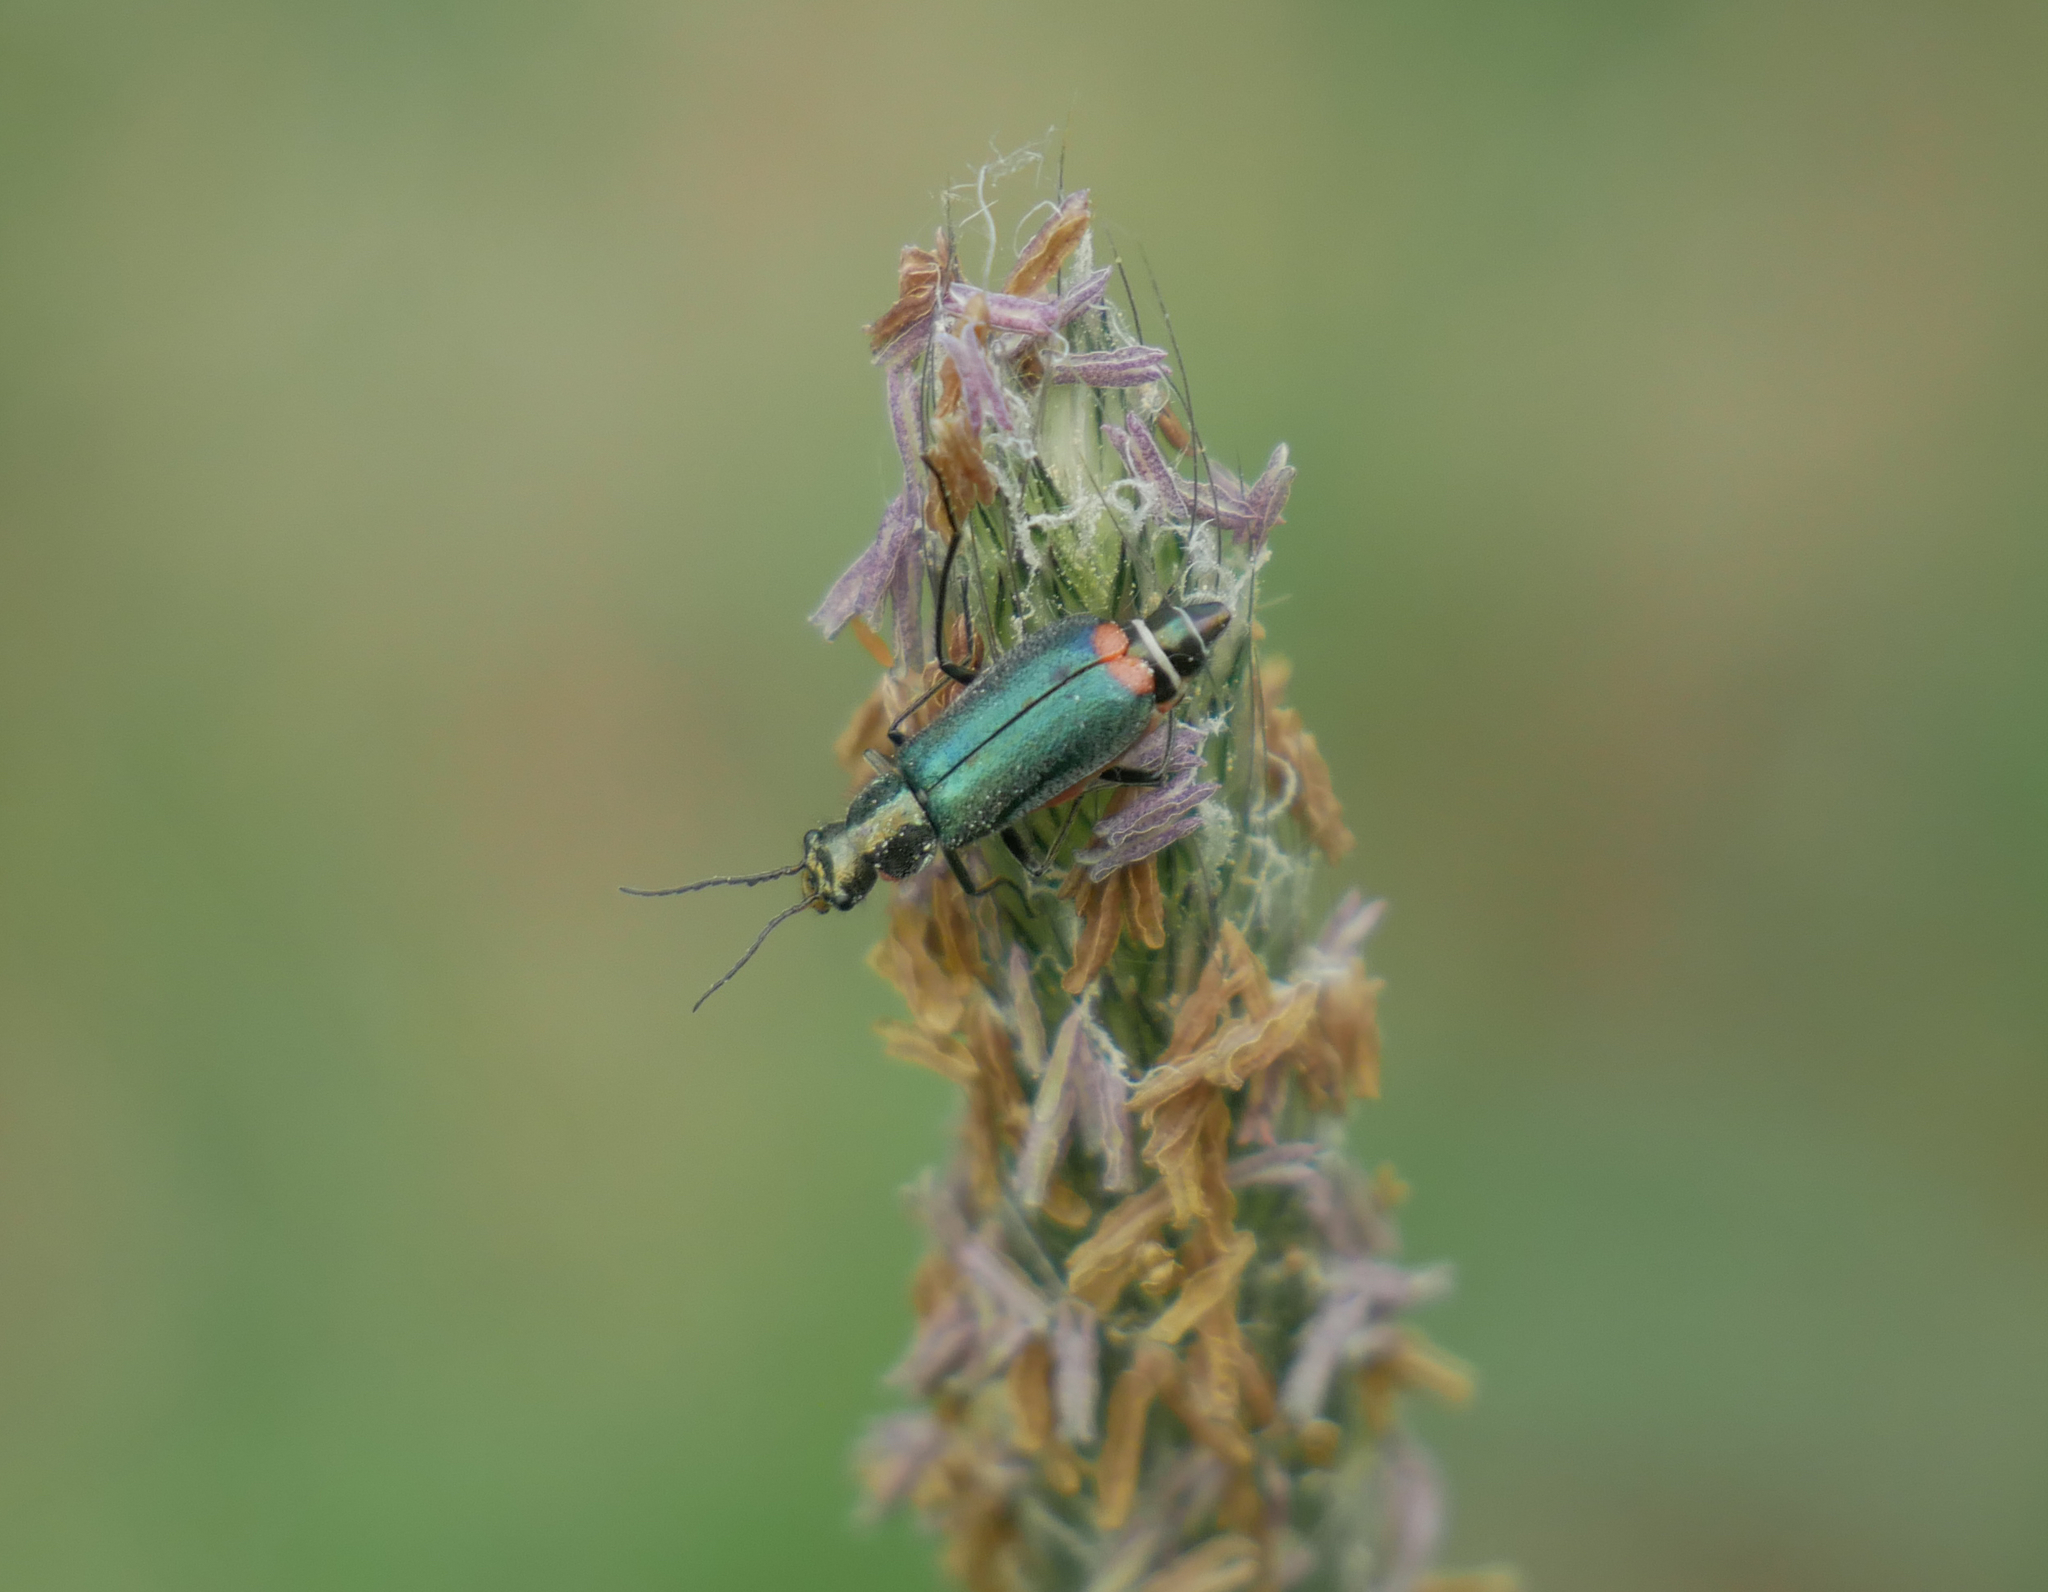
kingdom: Animalia
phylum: Arthropoda
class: Insecta
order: Coleoptera
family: Melyridae
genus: Malachius
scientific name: Malachius bipustulatus
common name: Malachite beetle
